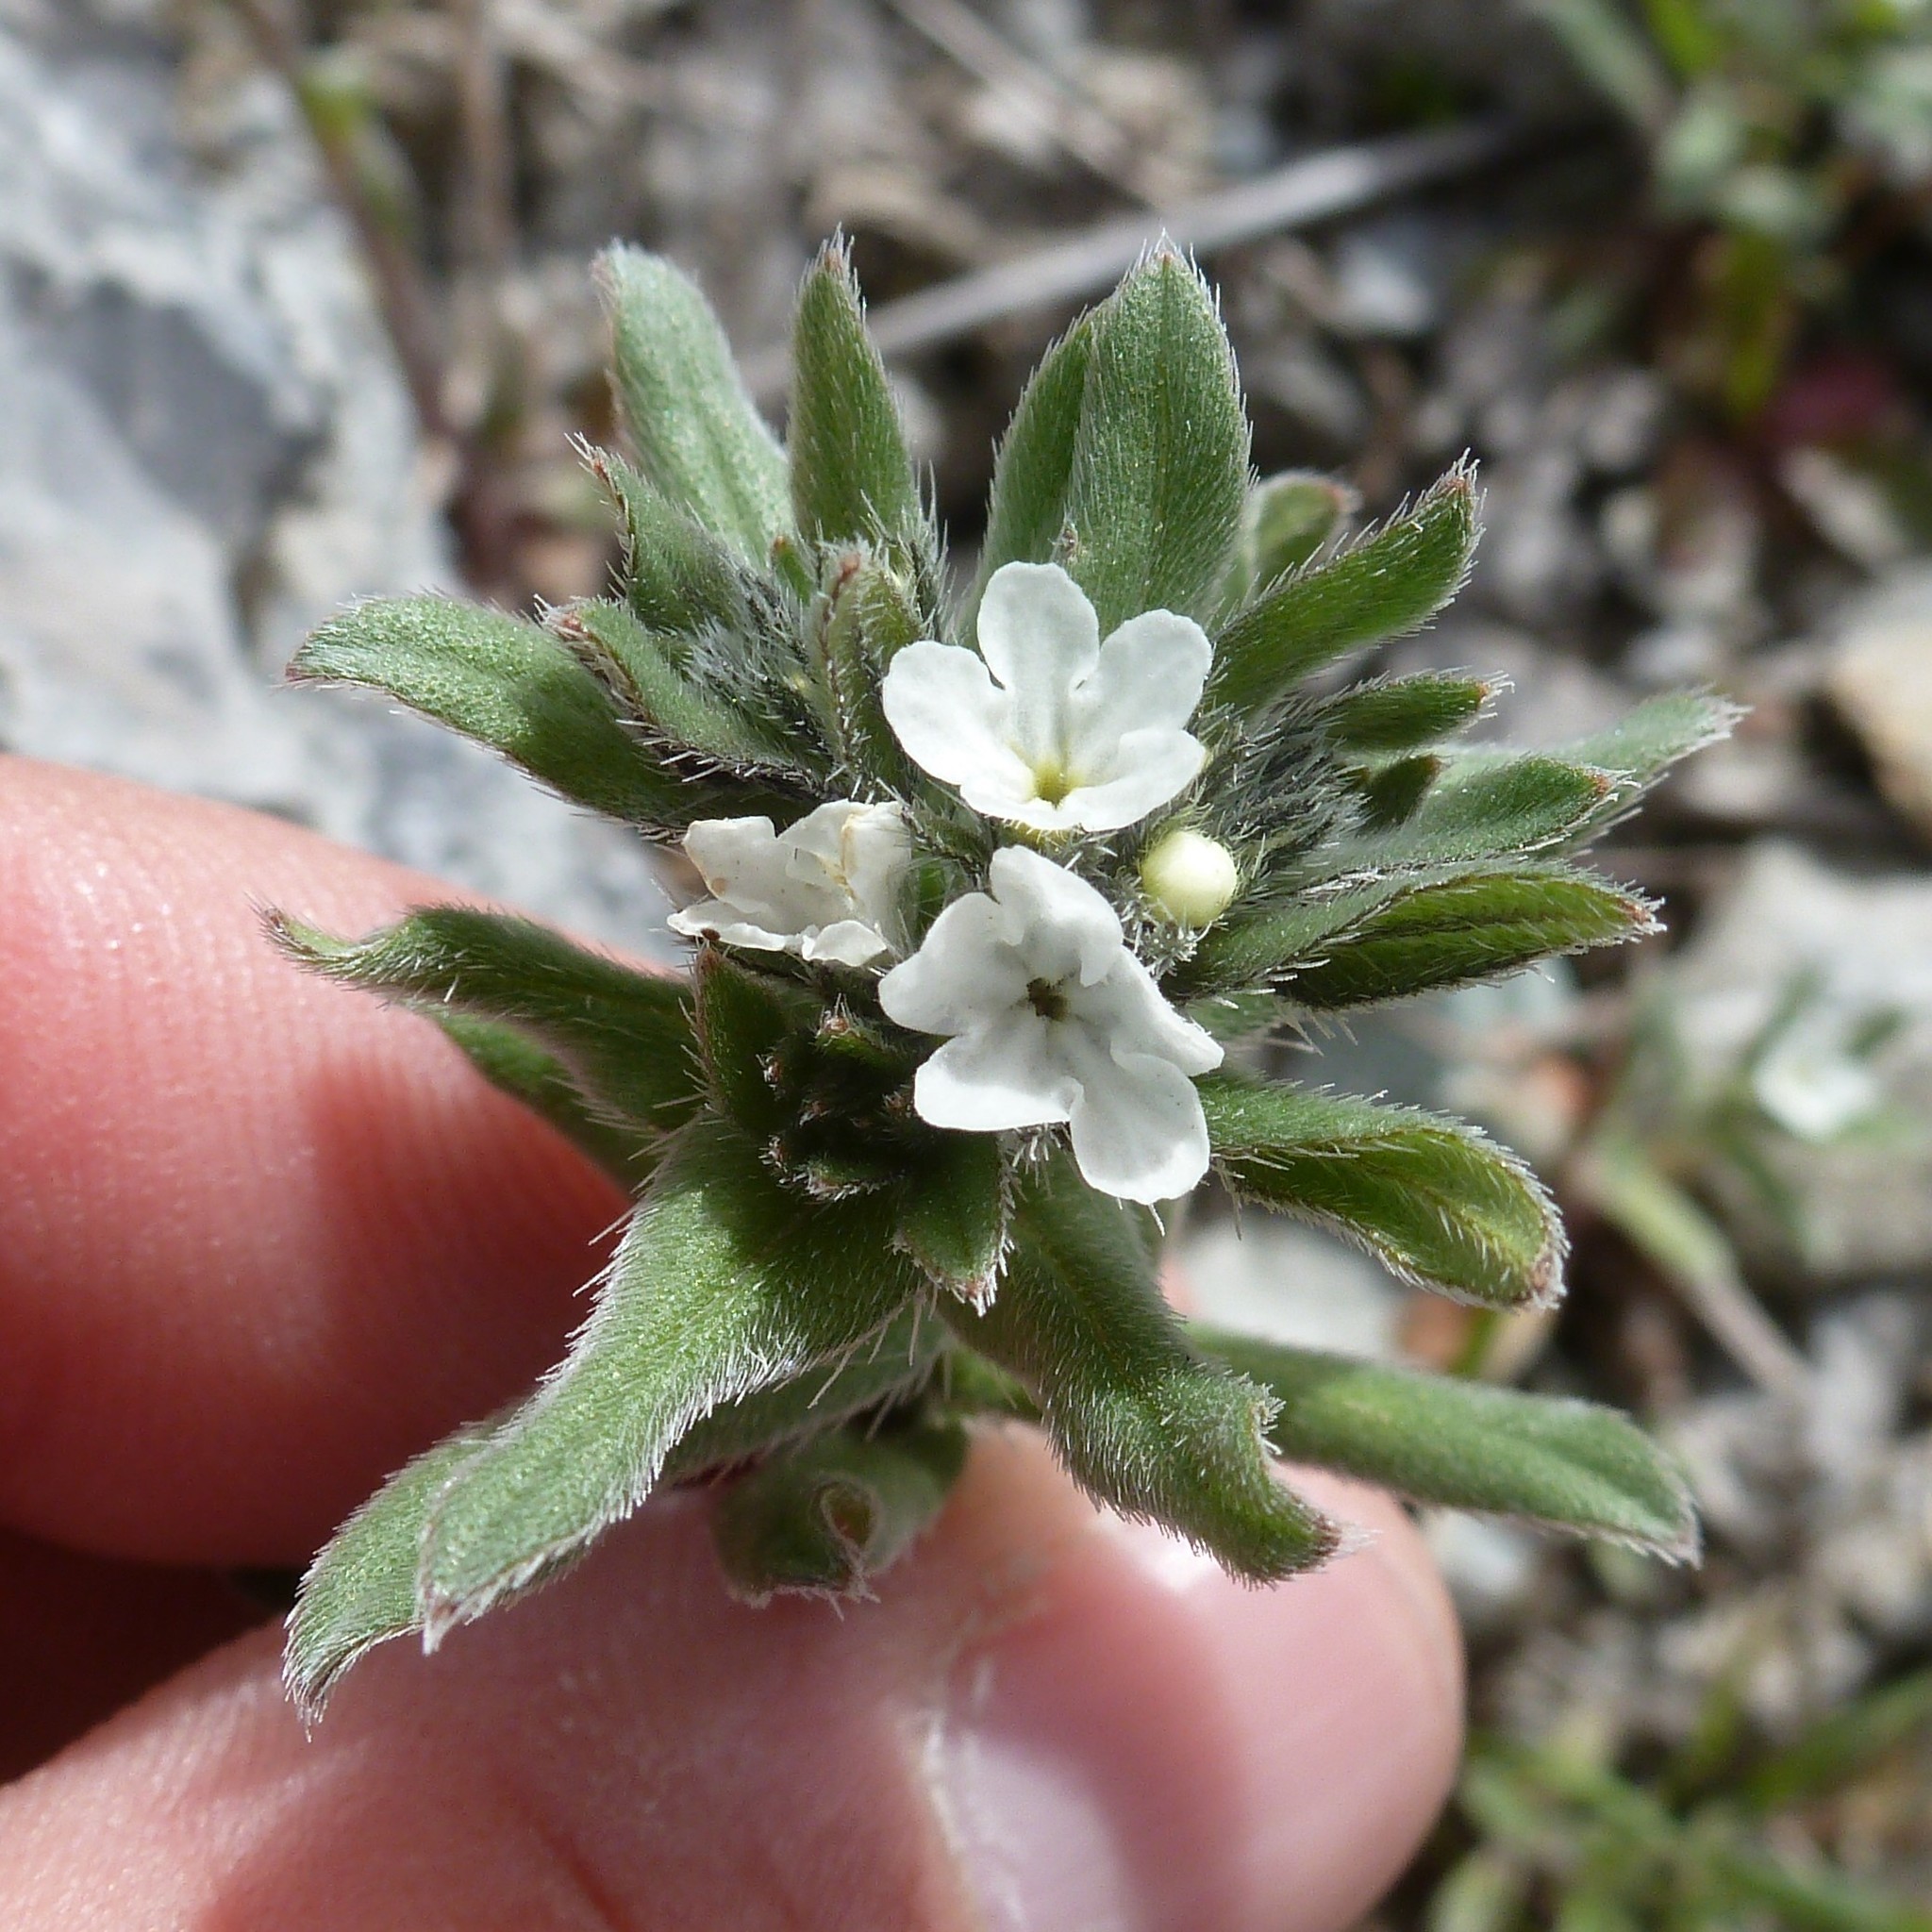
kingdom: Plantae
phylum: Tracheophyta
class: Magnoliopsida
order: Boraginales
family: Boraginaceae
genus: Buglossoides
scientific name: Buglossoides arvensis
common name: Corn gromwell
